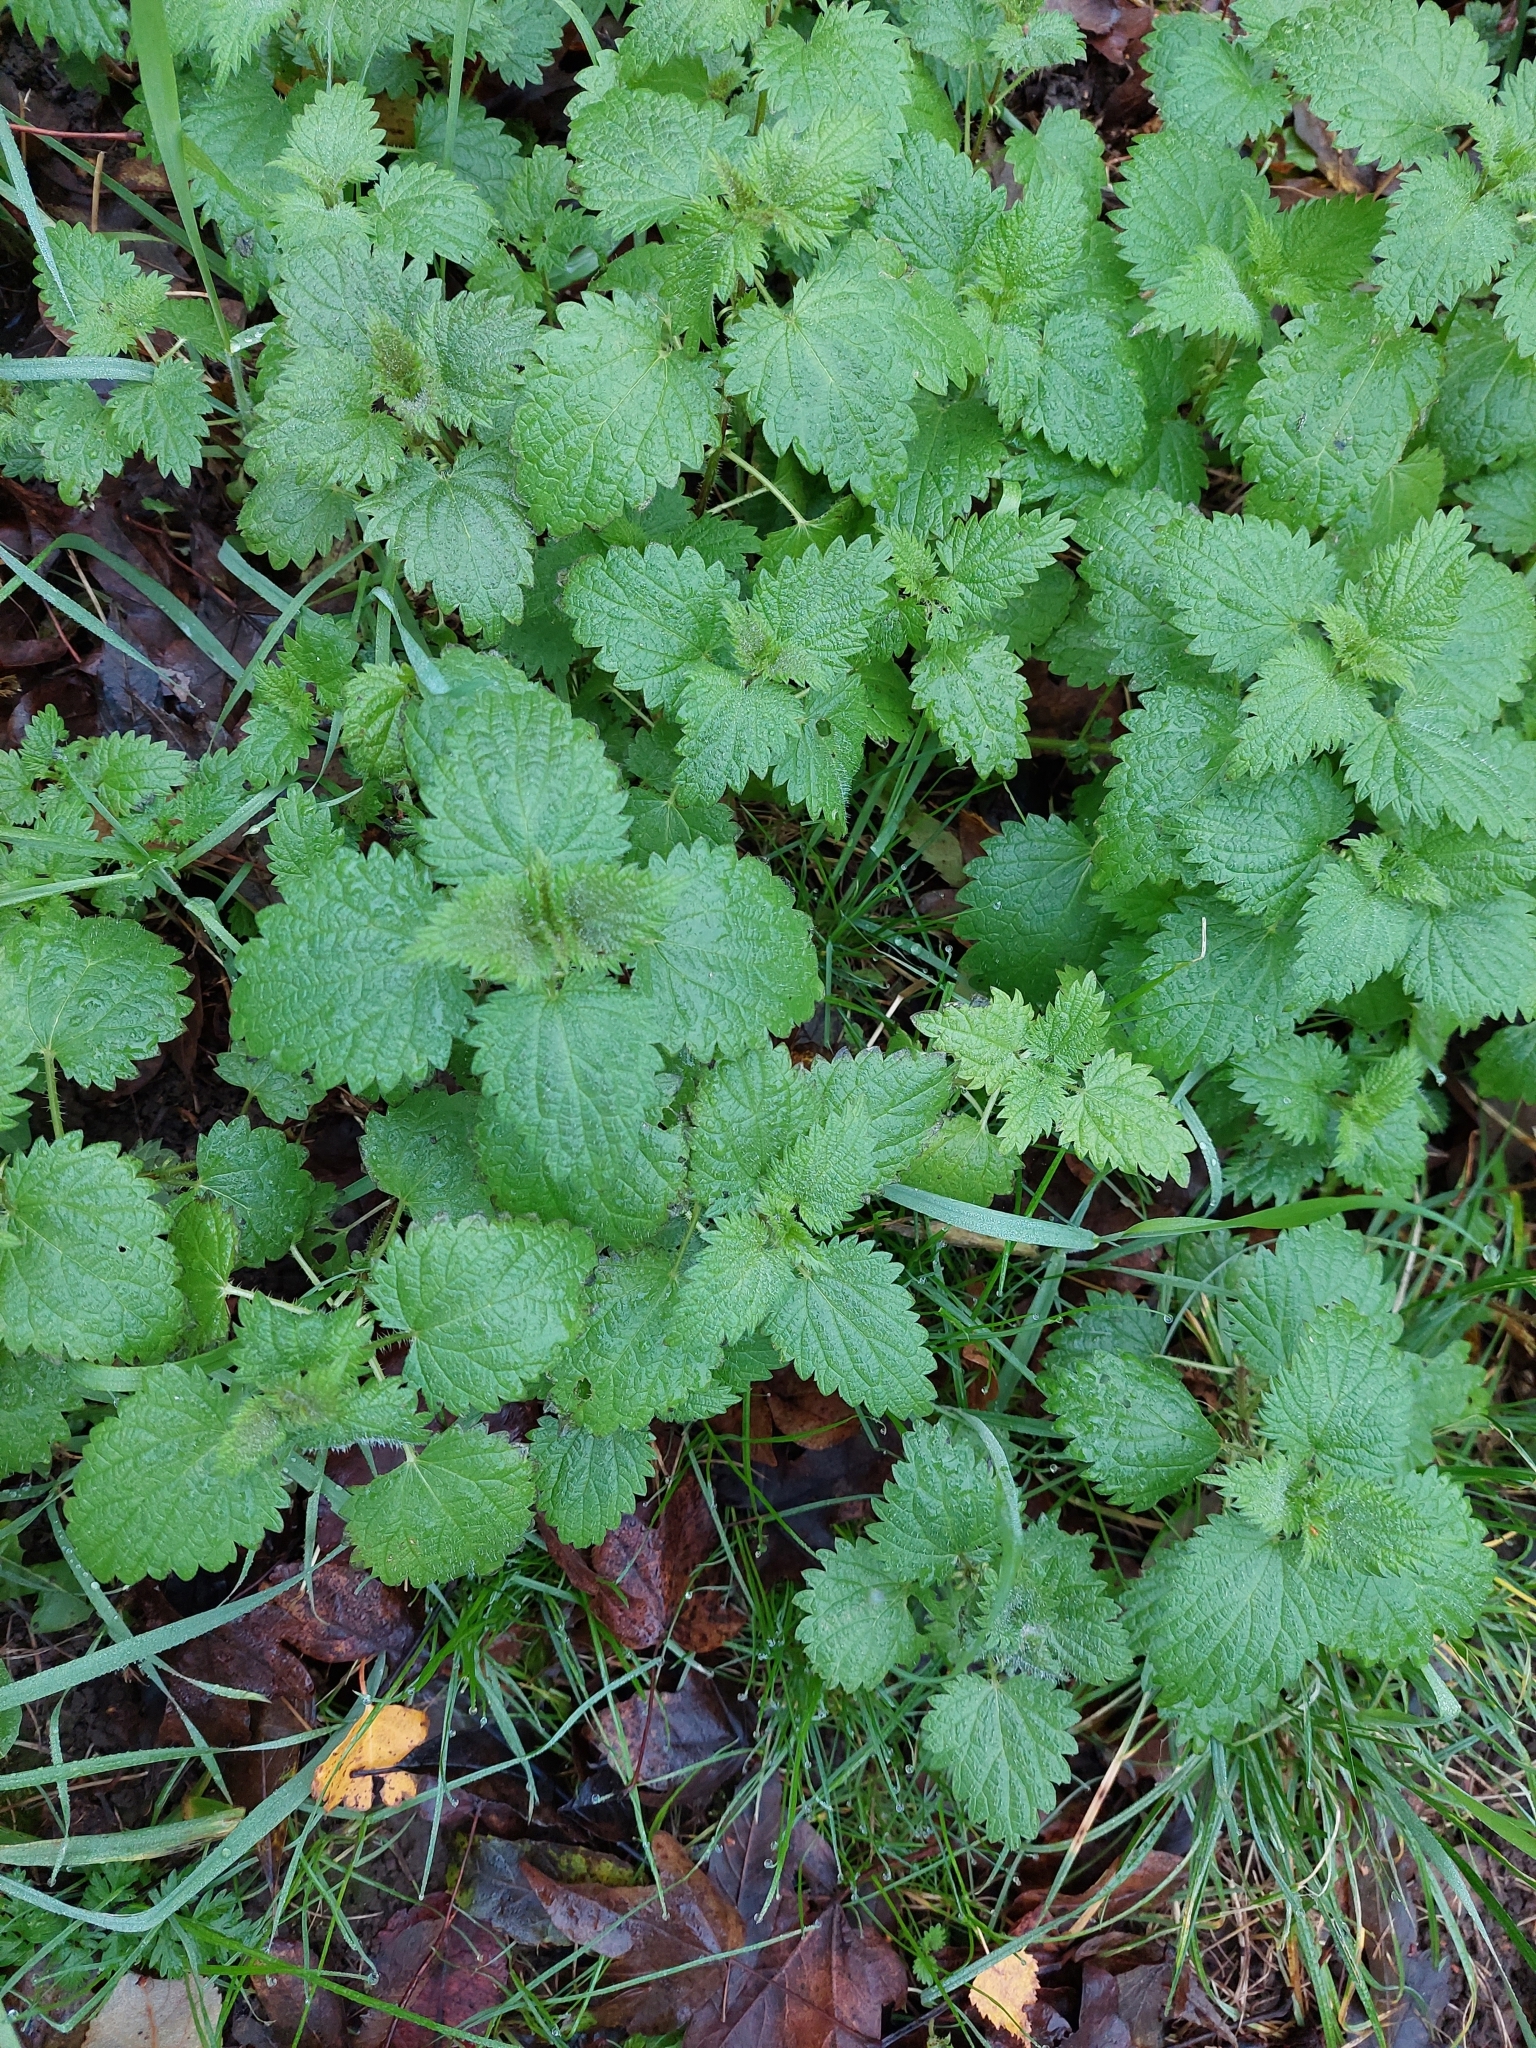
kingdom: Plantae
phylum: Tracheophyta
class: Magnoliopsida
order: Rosales
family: Urticaceae
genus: Urtica
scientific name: Urtica dioica
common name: Common nettle
